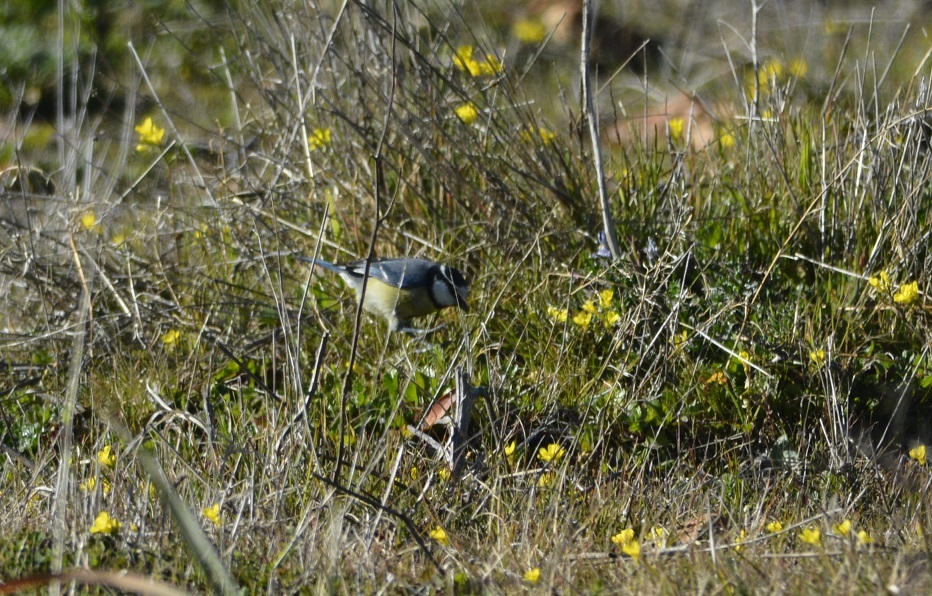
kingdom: Animalia
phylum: Chordata
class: Aves
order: Passeriformes
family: Paridae
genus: Cyanistes
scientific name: Cyanistes teneriffae
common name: African blue tit
